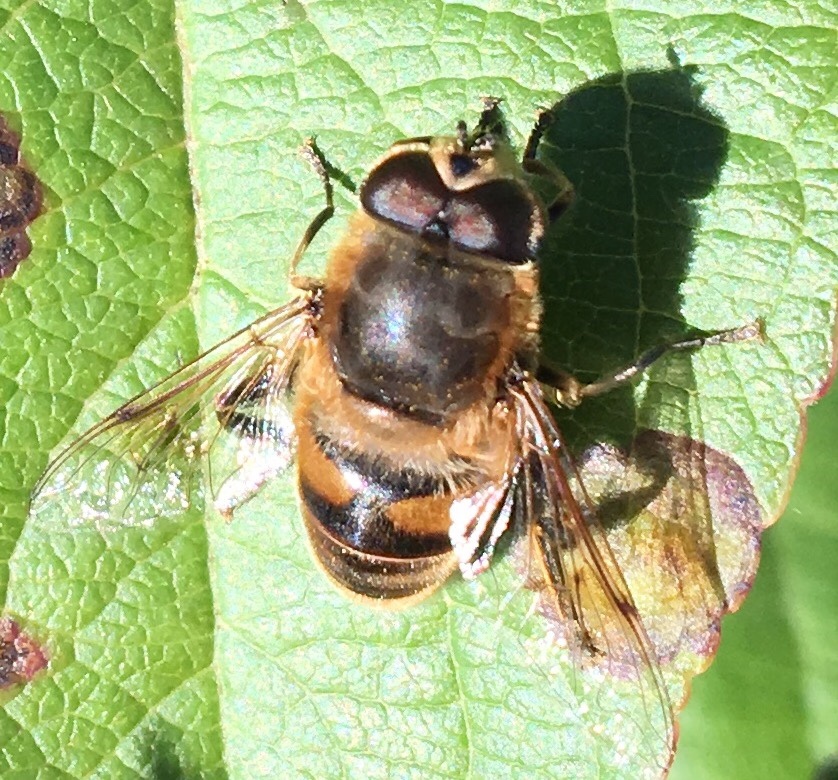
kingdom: Animalia
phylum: Arthropoda
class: Insecta
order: Diptera
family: Syrphidae
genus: Eristalis
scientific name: Eristalis tenax
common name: Drone fly
